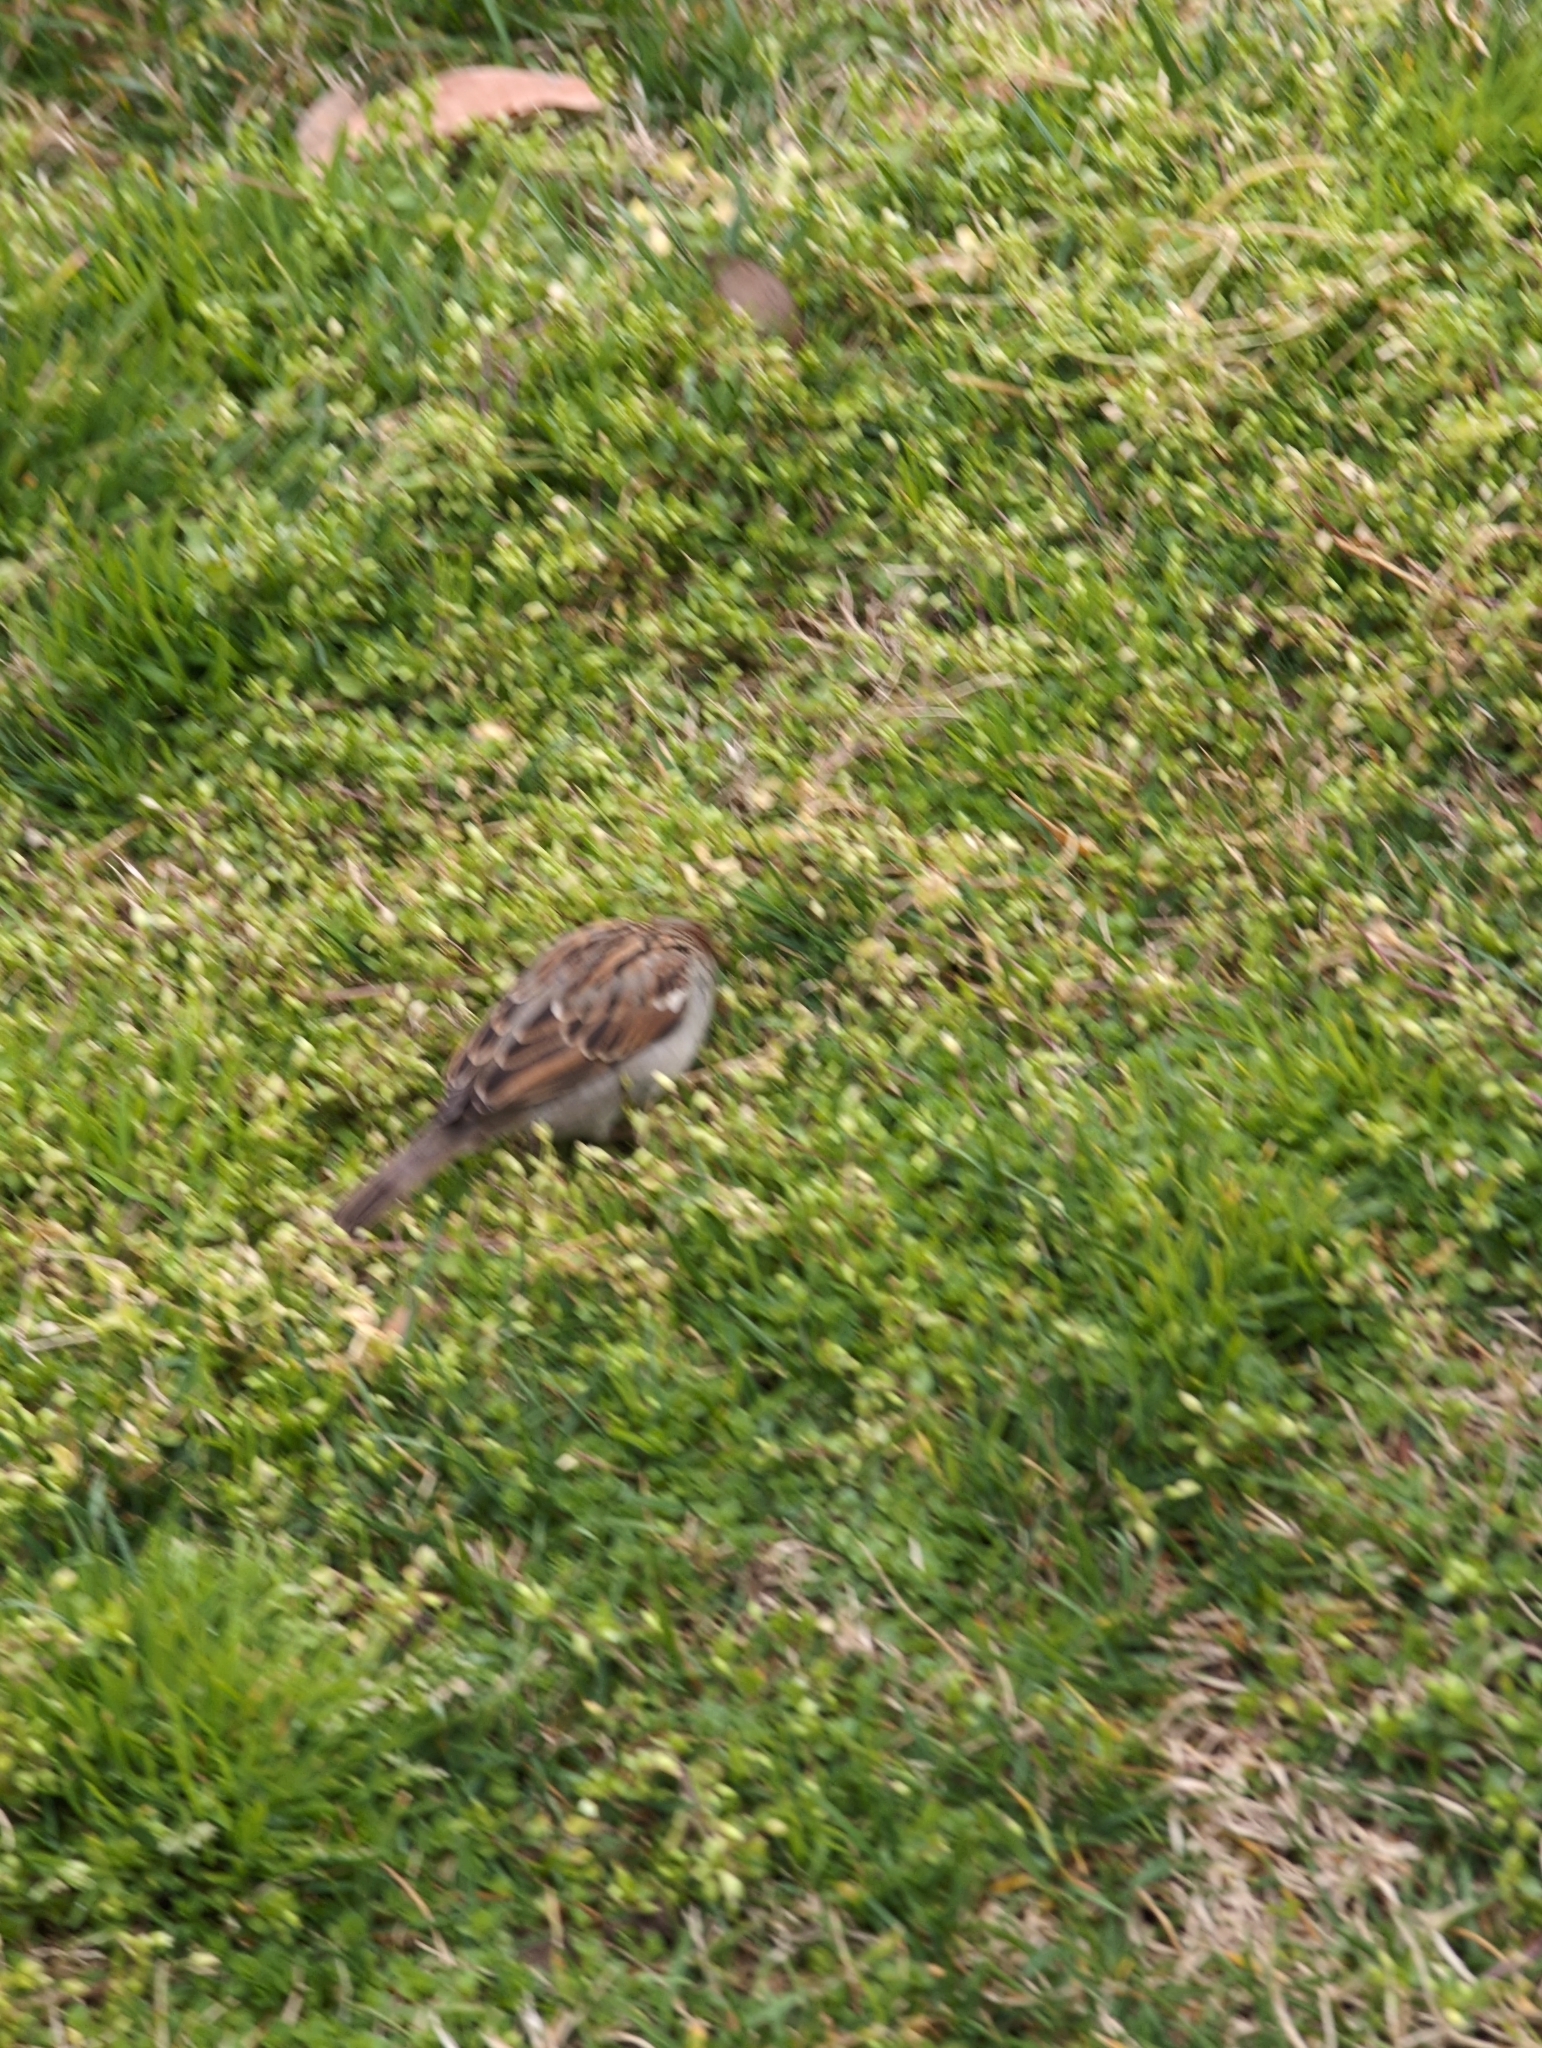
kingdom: Animalia
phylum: Chordata
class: Aves
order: Passeriformes
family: Passeridae
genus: Passer
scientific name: Passer domesticus
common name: House sparrow
